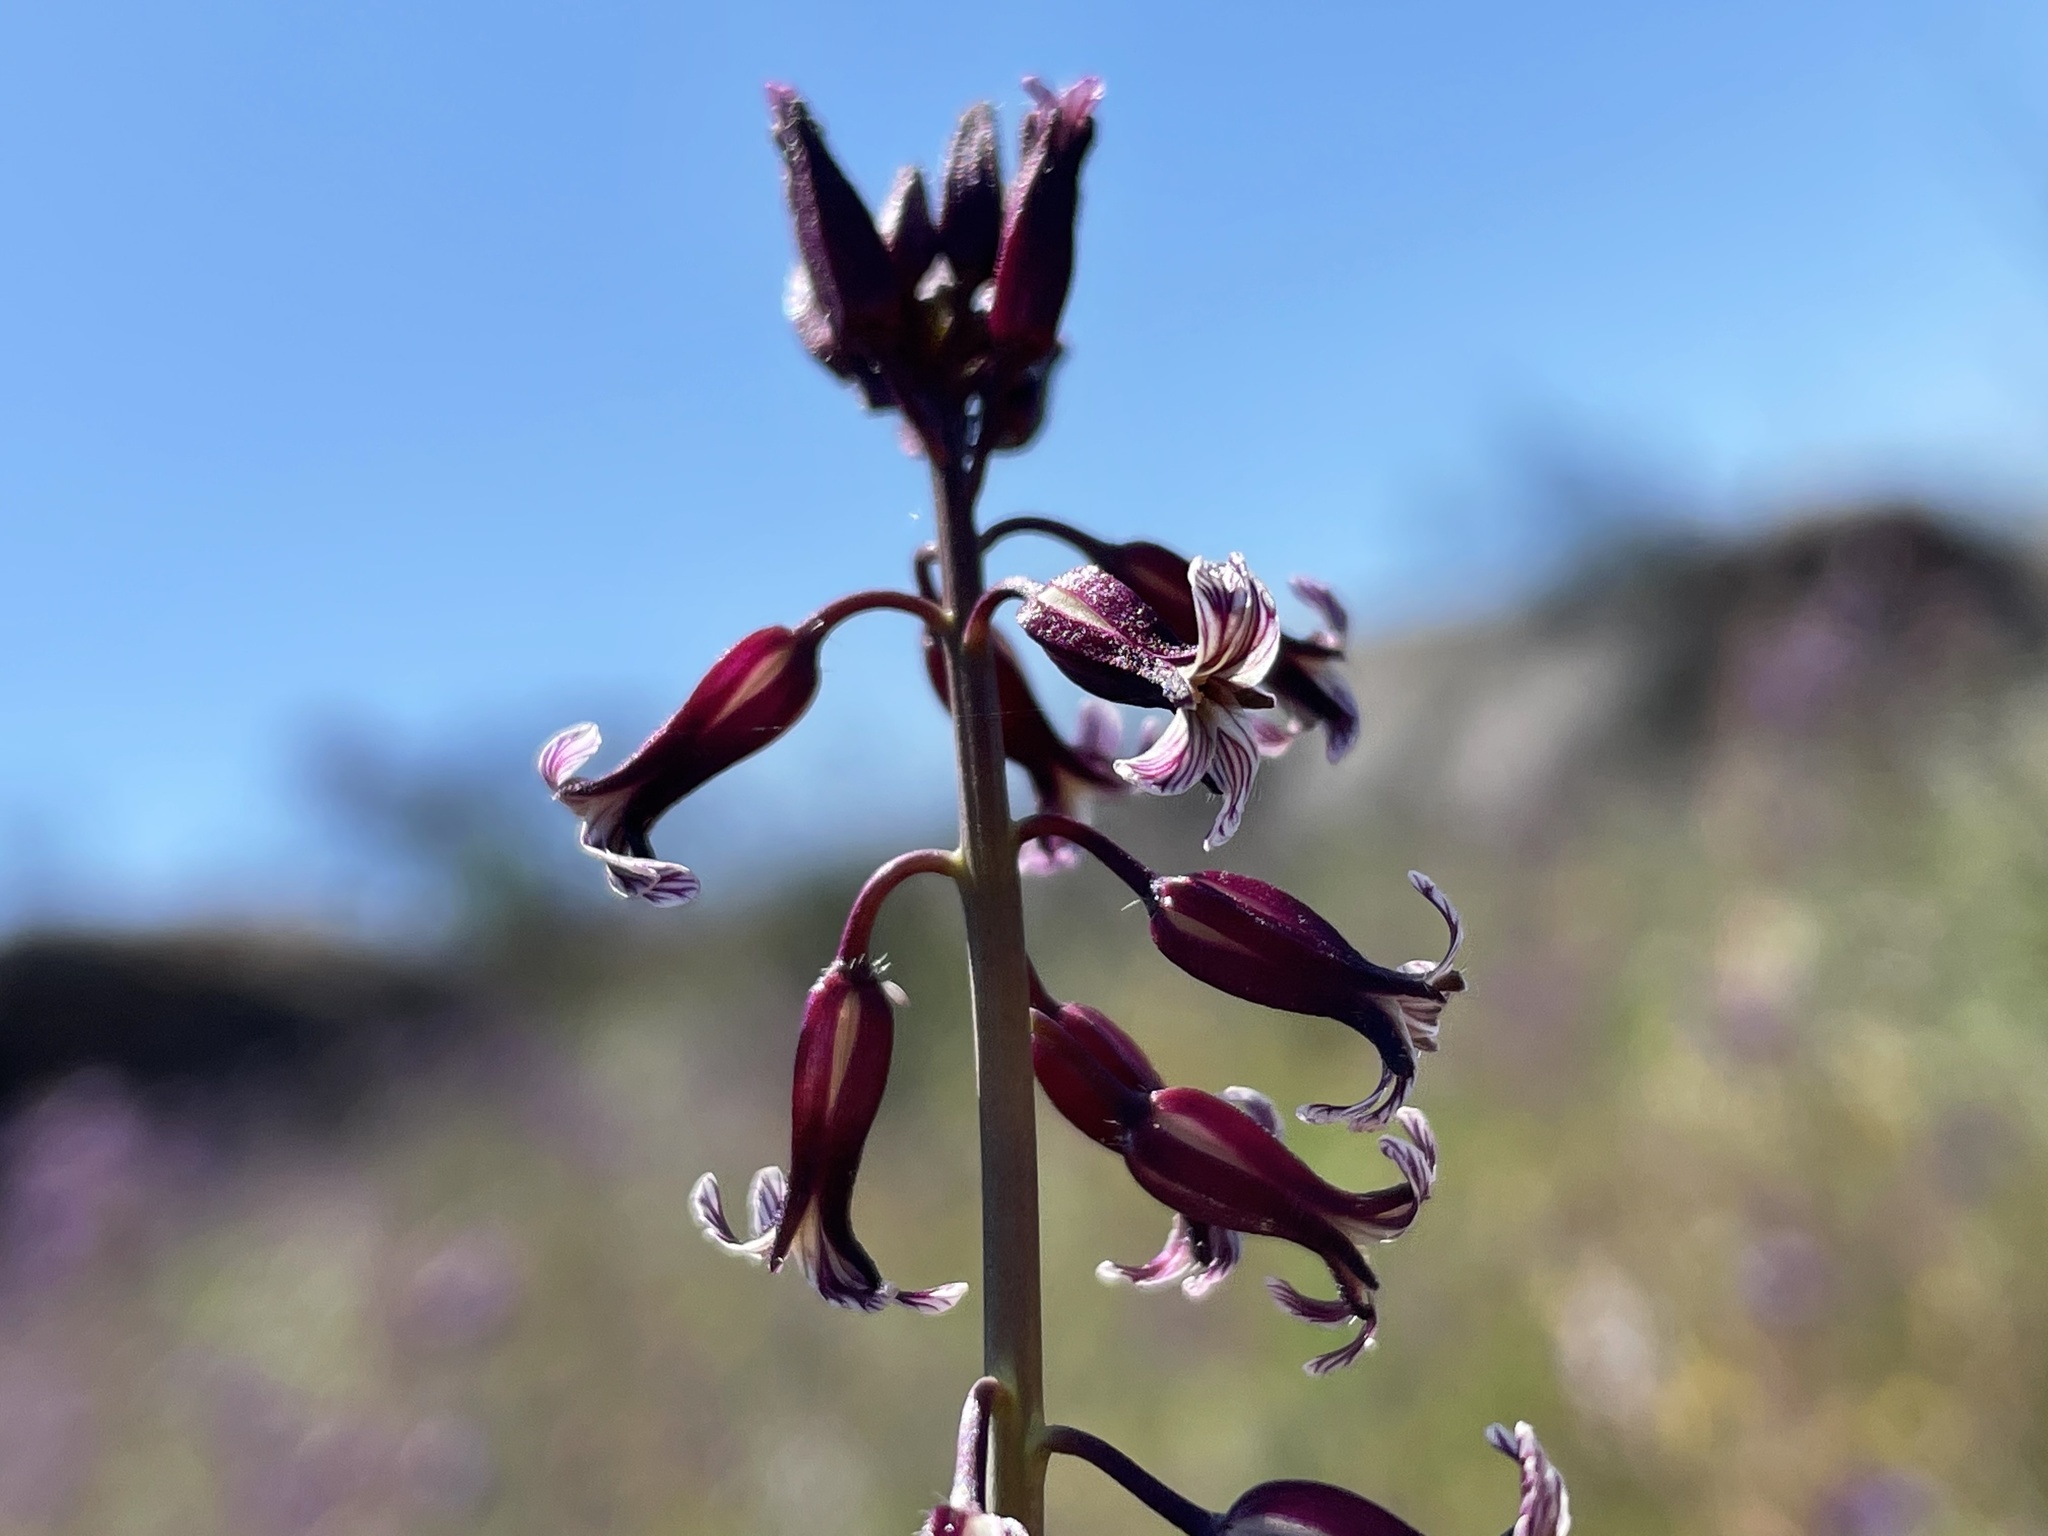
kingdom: Plantae
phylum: Tracheophyta
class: Magnoliopsida
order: Brassicales
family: Brassicaceae
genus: Streptanthus
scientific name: Streptanthus heterophyllus
